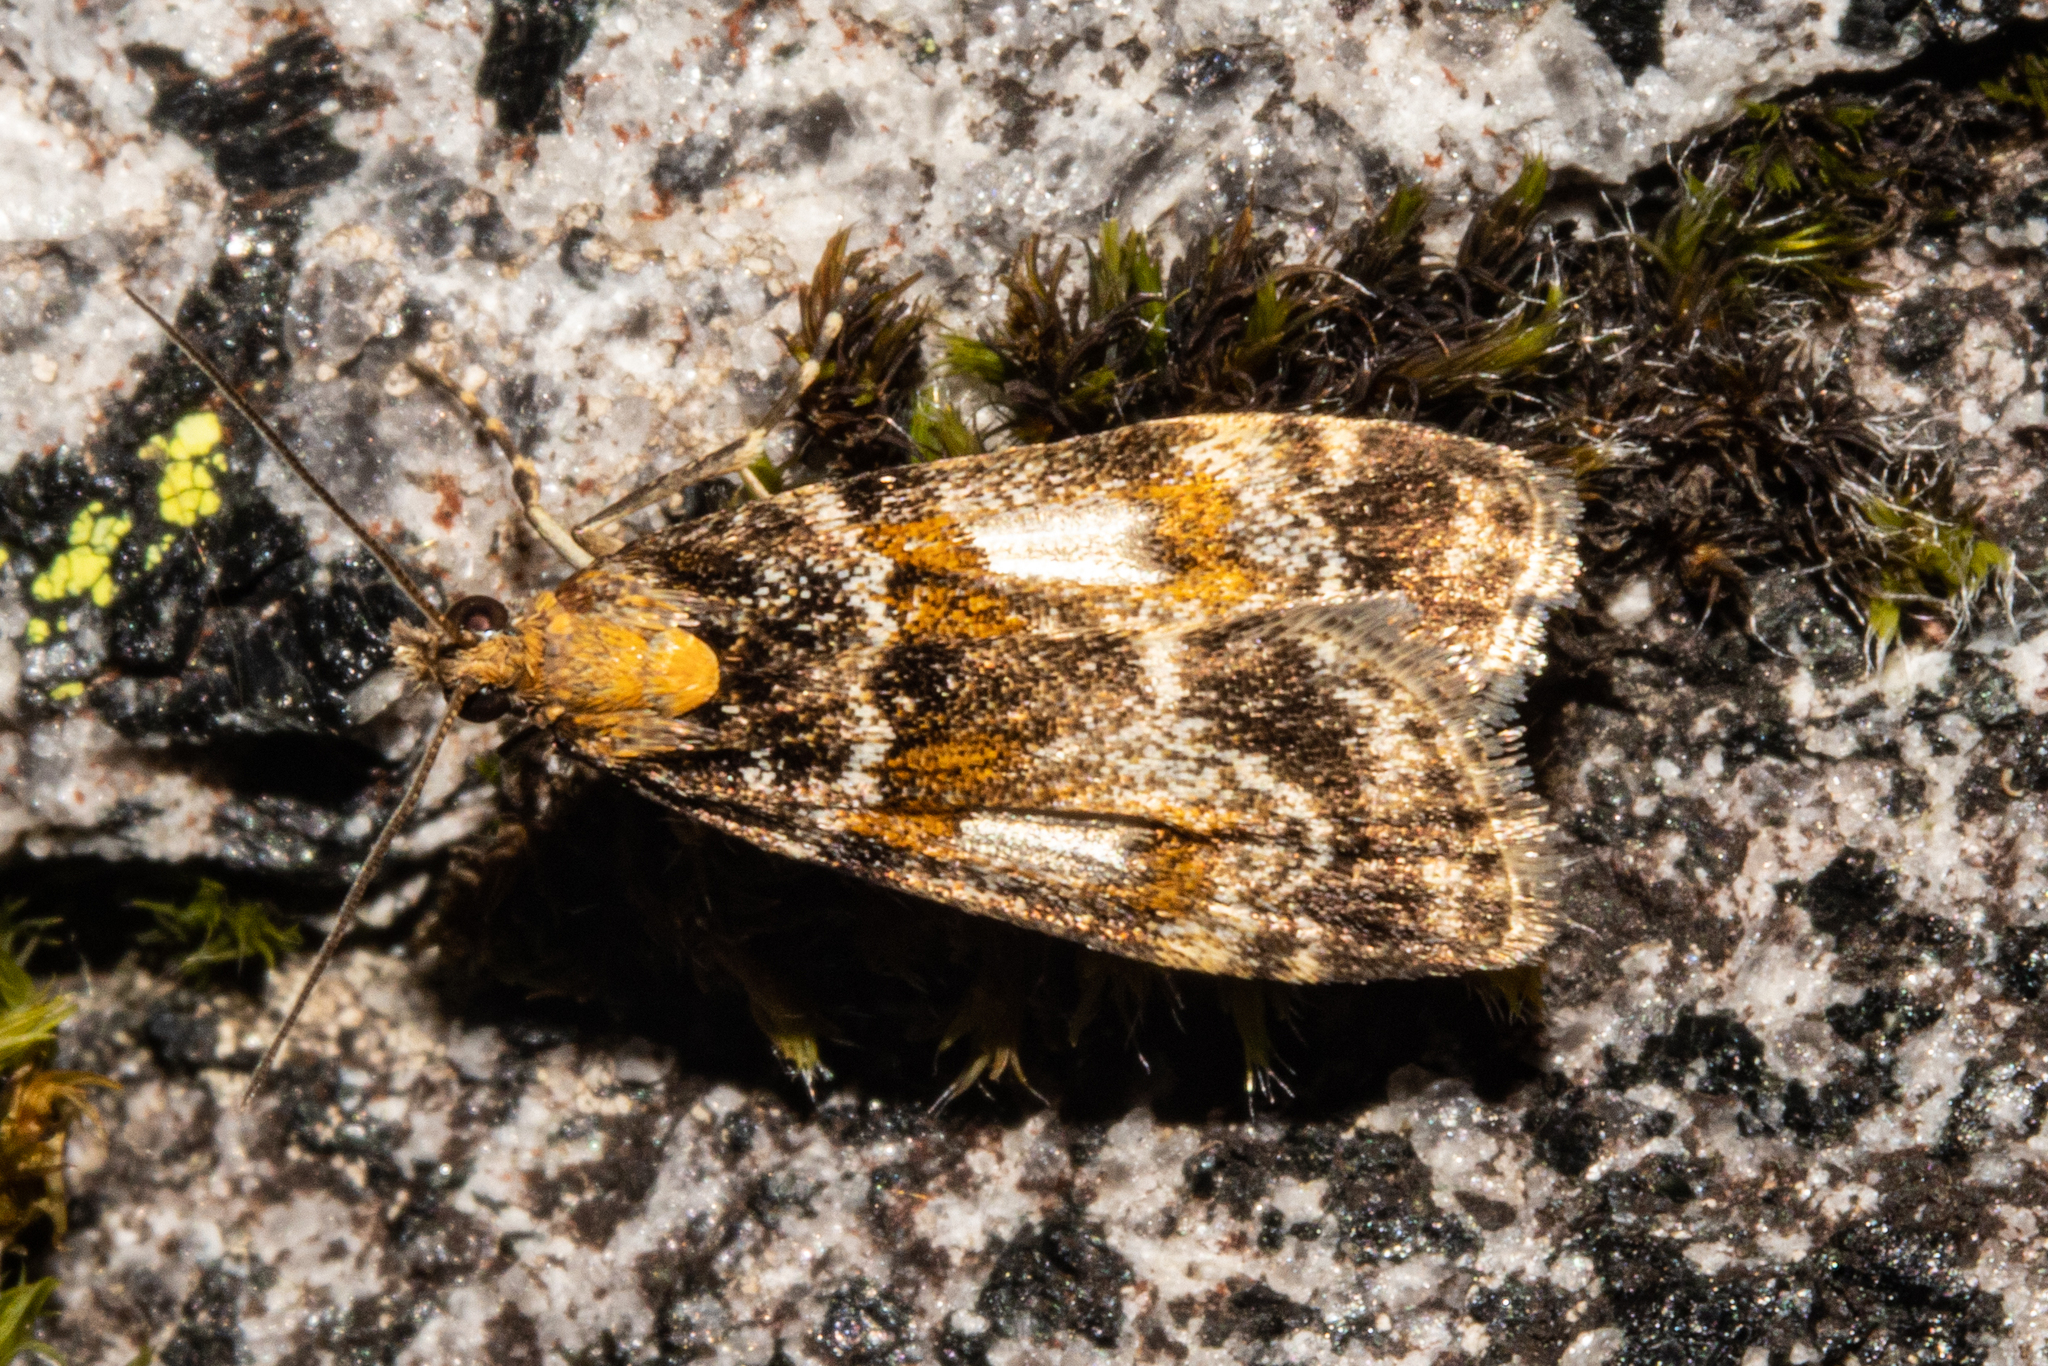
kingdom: Animalia
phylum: Arthropoda
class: Insecta
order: Lepidoptera
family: Crambidae
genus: Eudonia
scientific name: Eudonia thyridias
